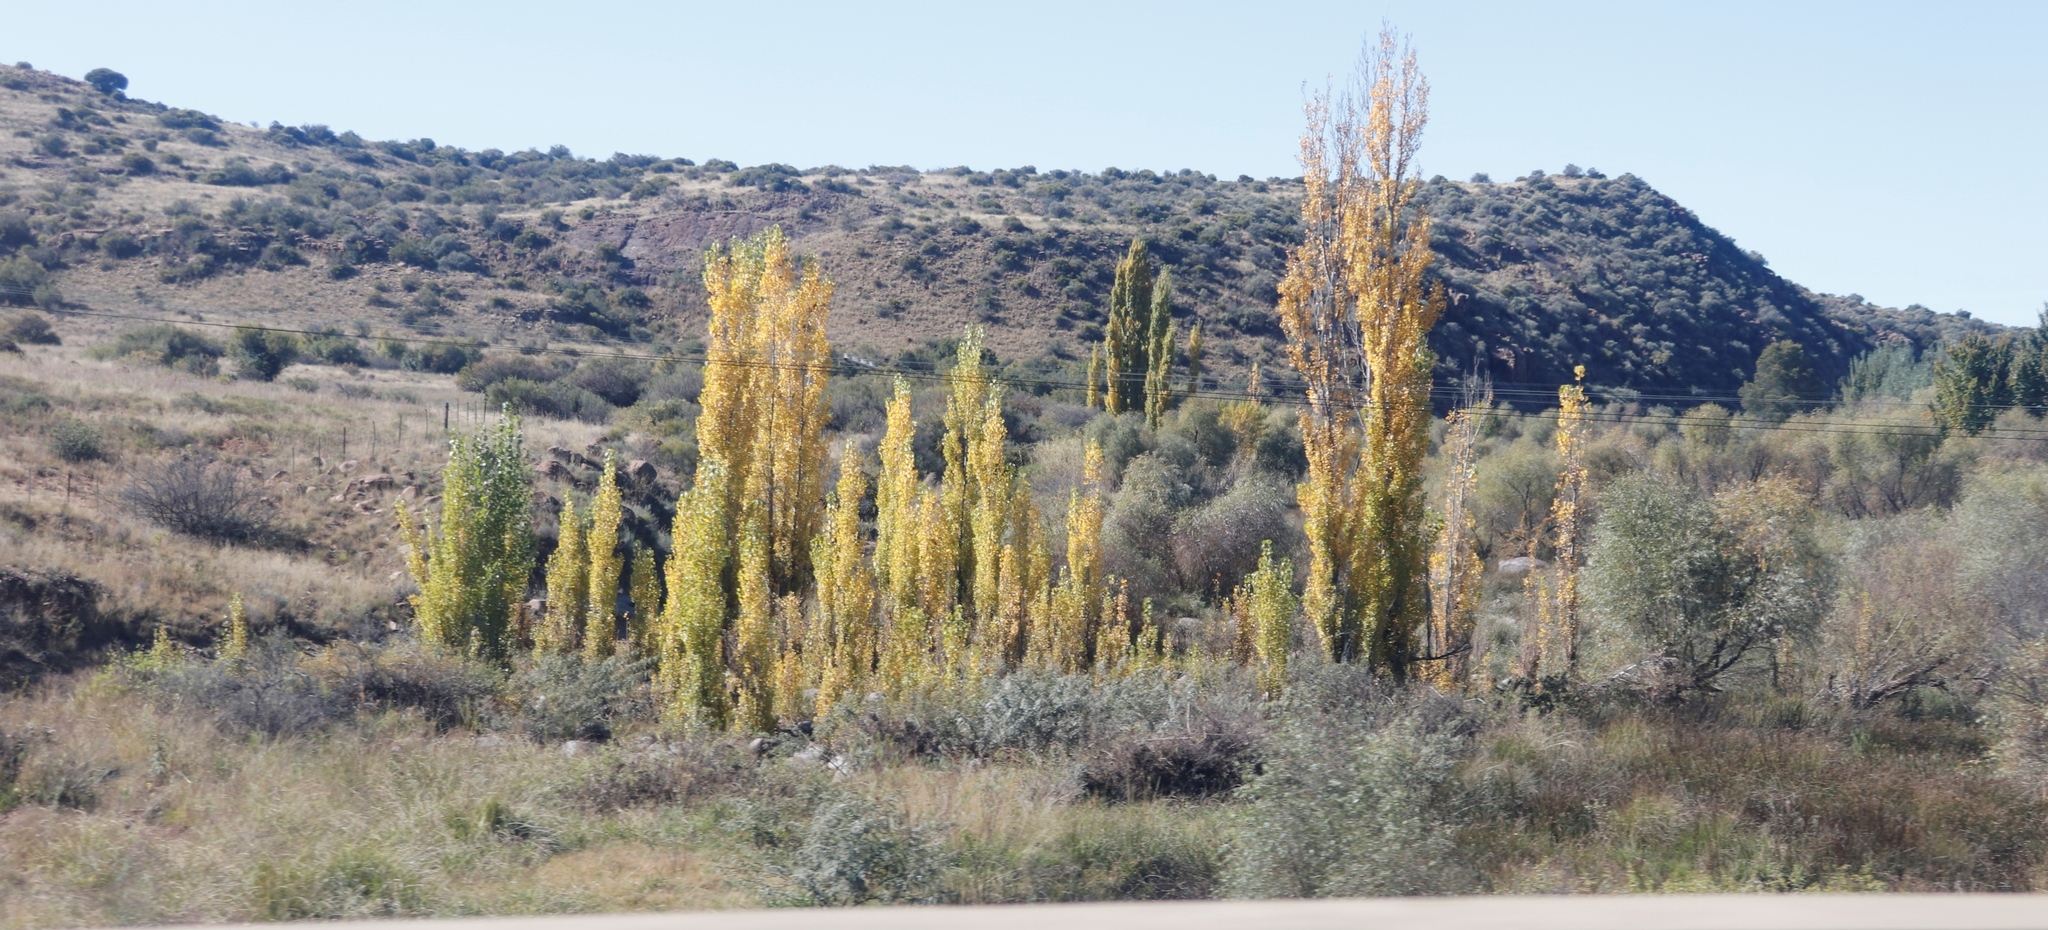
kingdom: Plantae
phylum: Tracheophyta
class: Magnoliopsida
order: Malpighiales
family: Salicaceae
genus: Populus
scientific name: Populus nigra
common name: Black poplar
